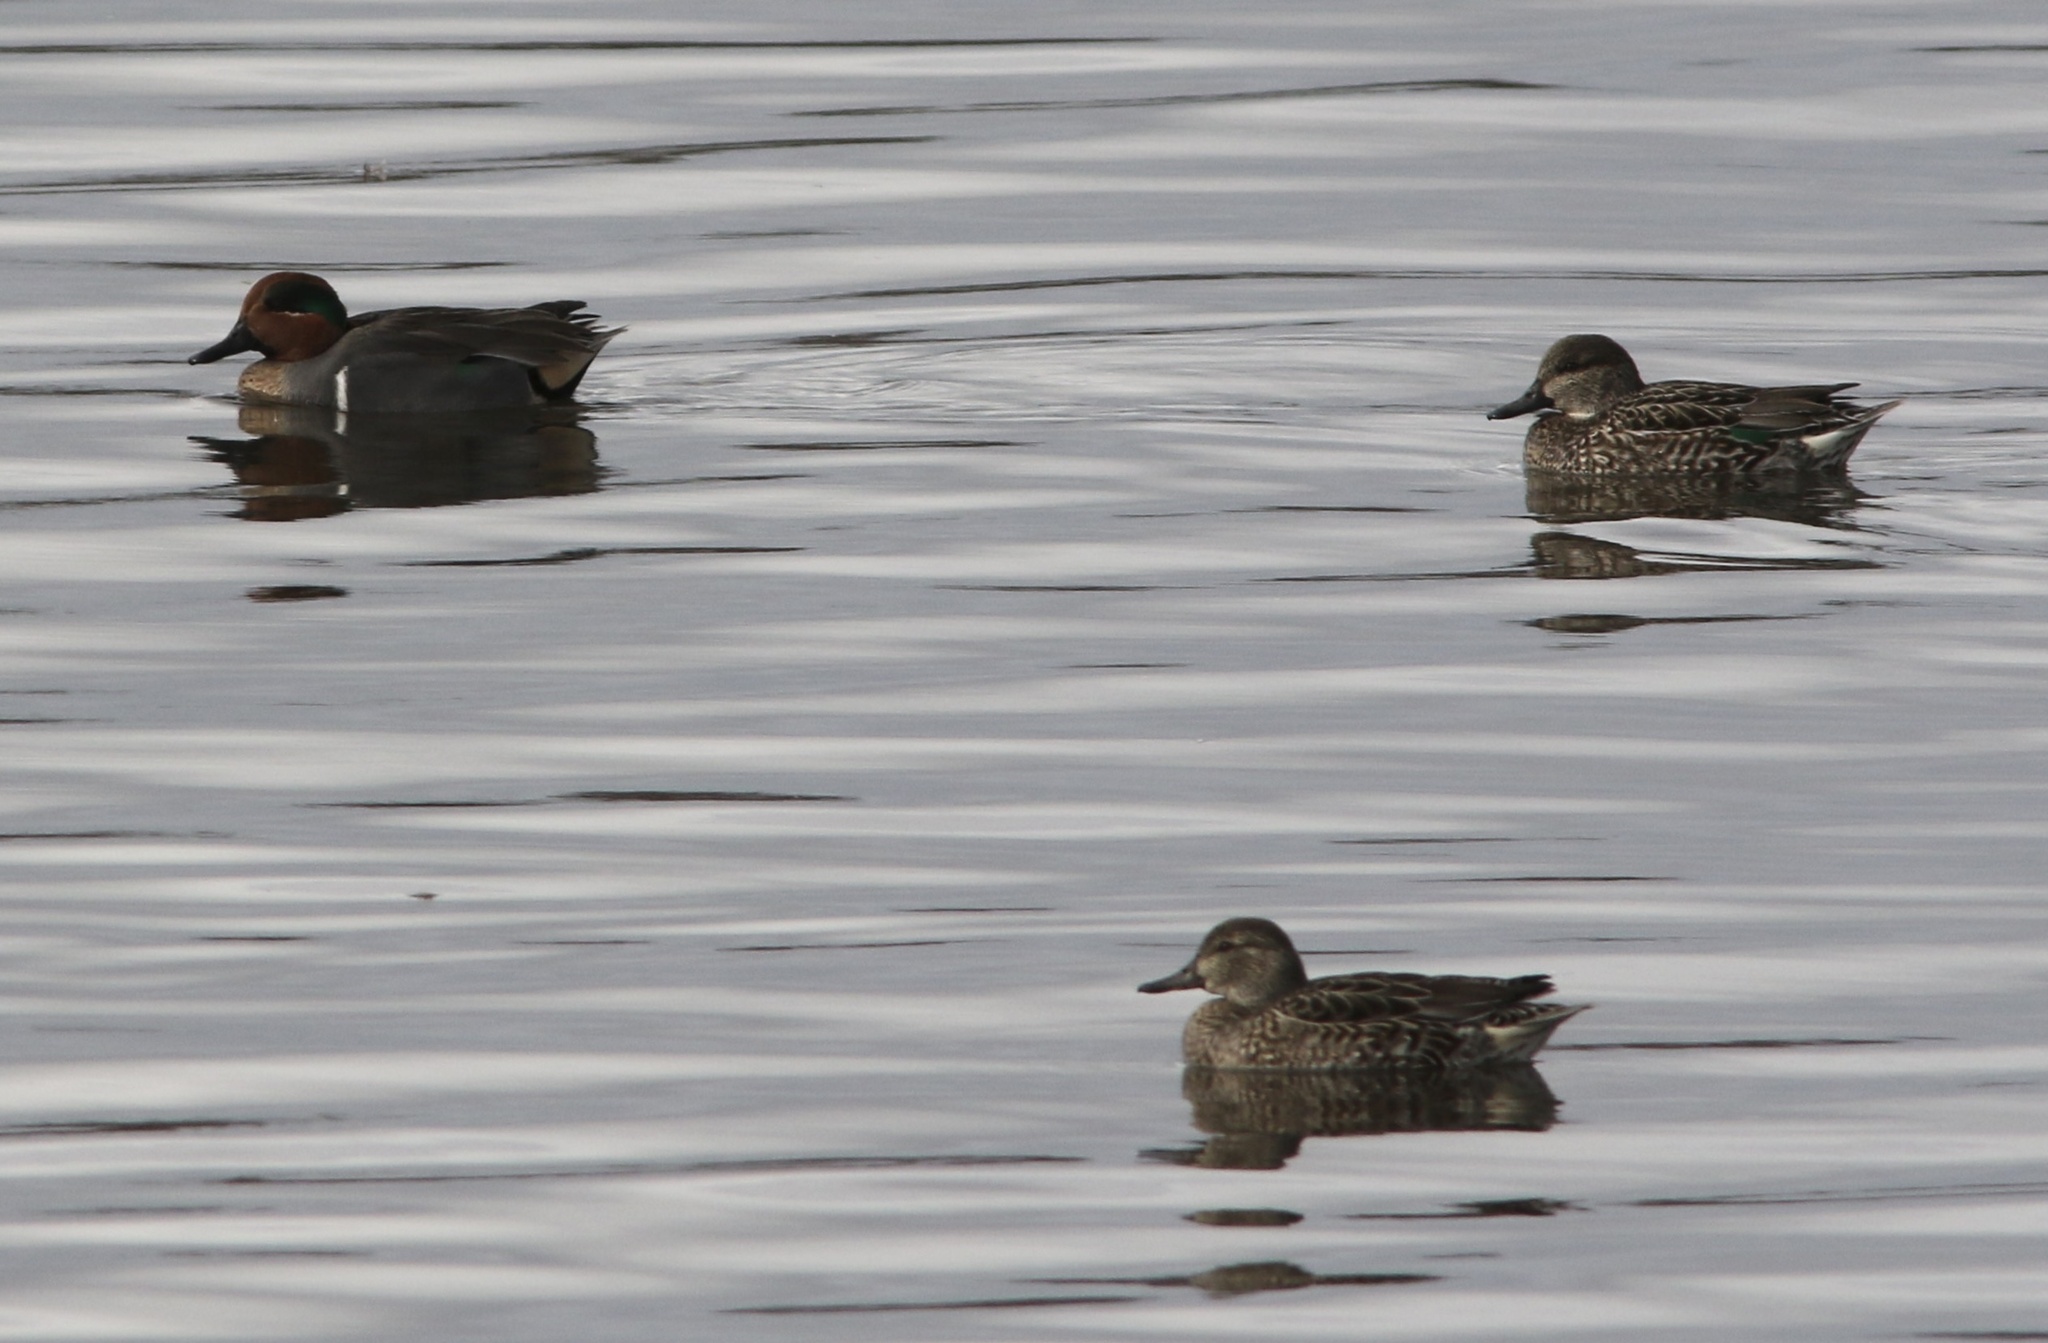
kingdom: Animalia
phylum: Chordata
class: Aves
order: Anseriformes
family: Anatidae
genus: Anas
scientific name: Anas crecca
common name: Eurasian teal
